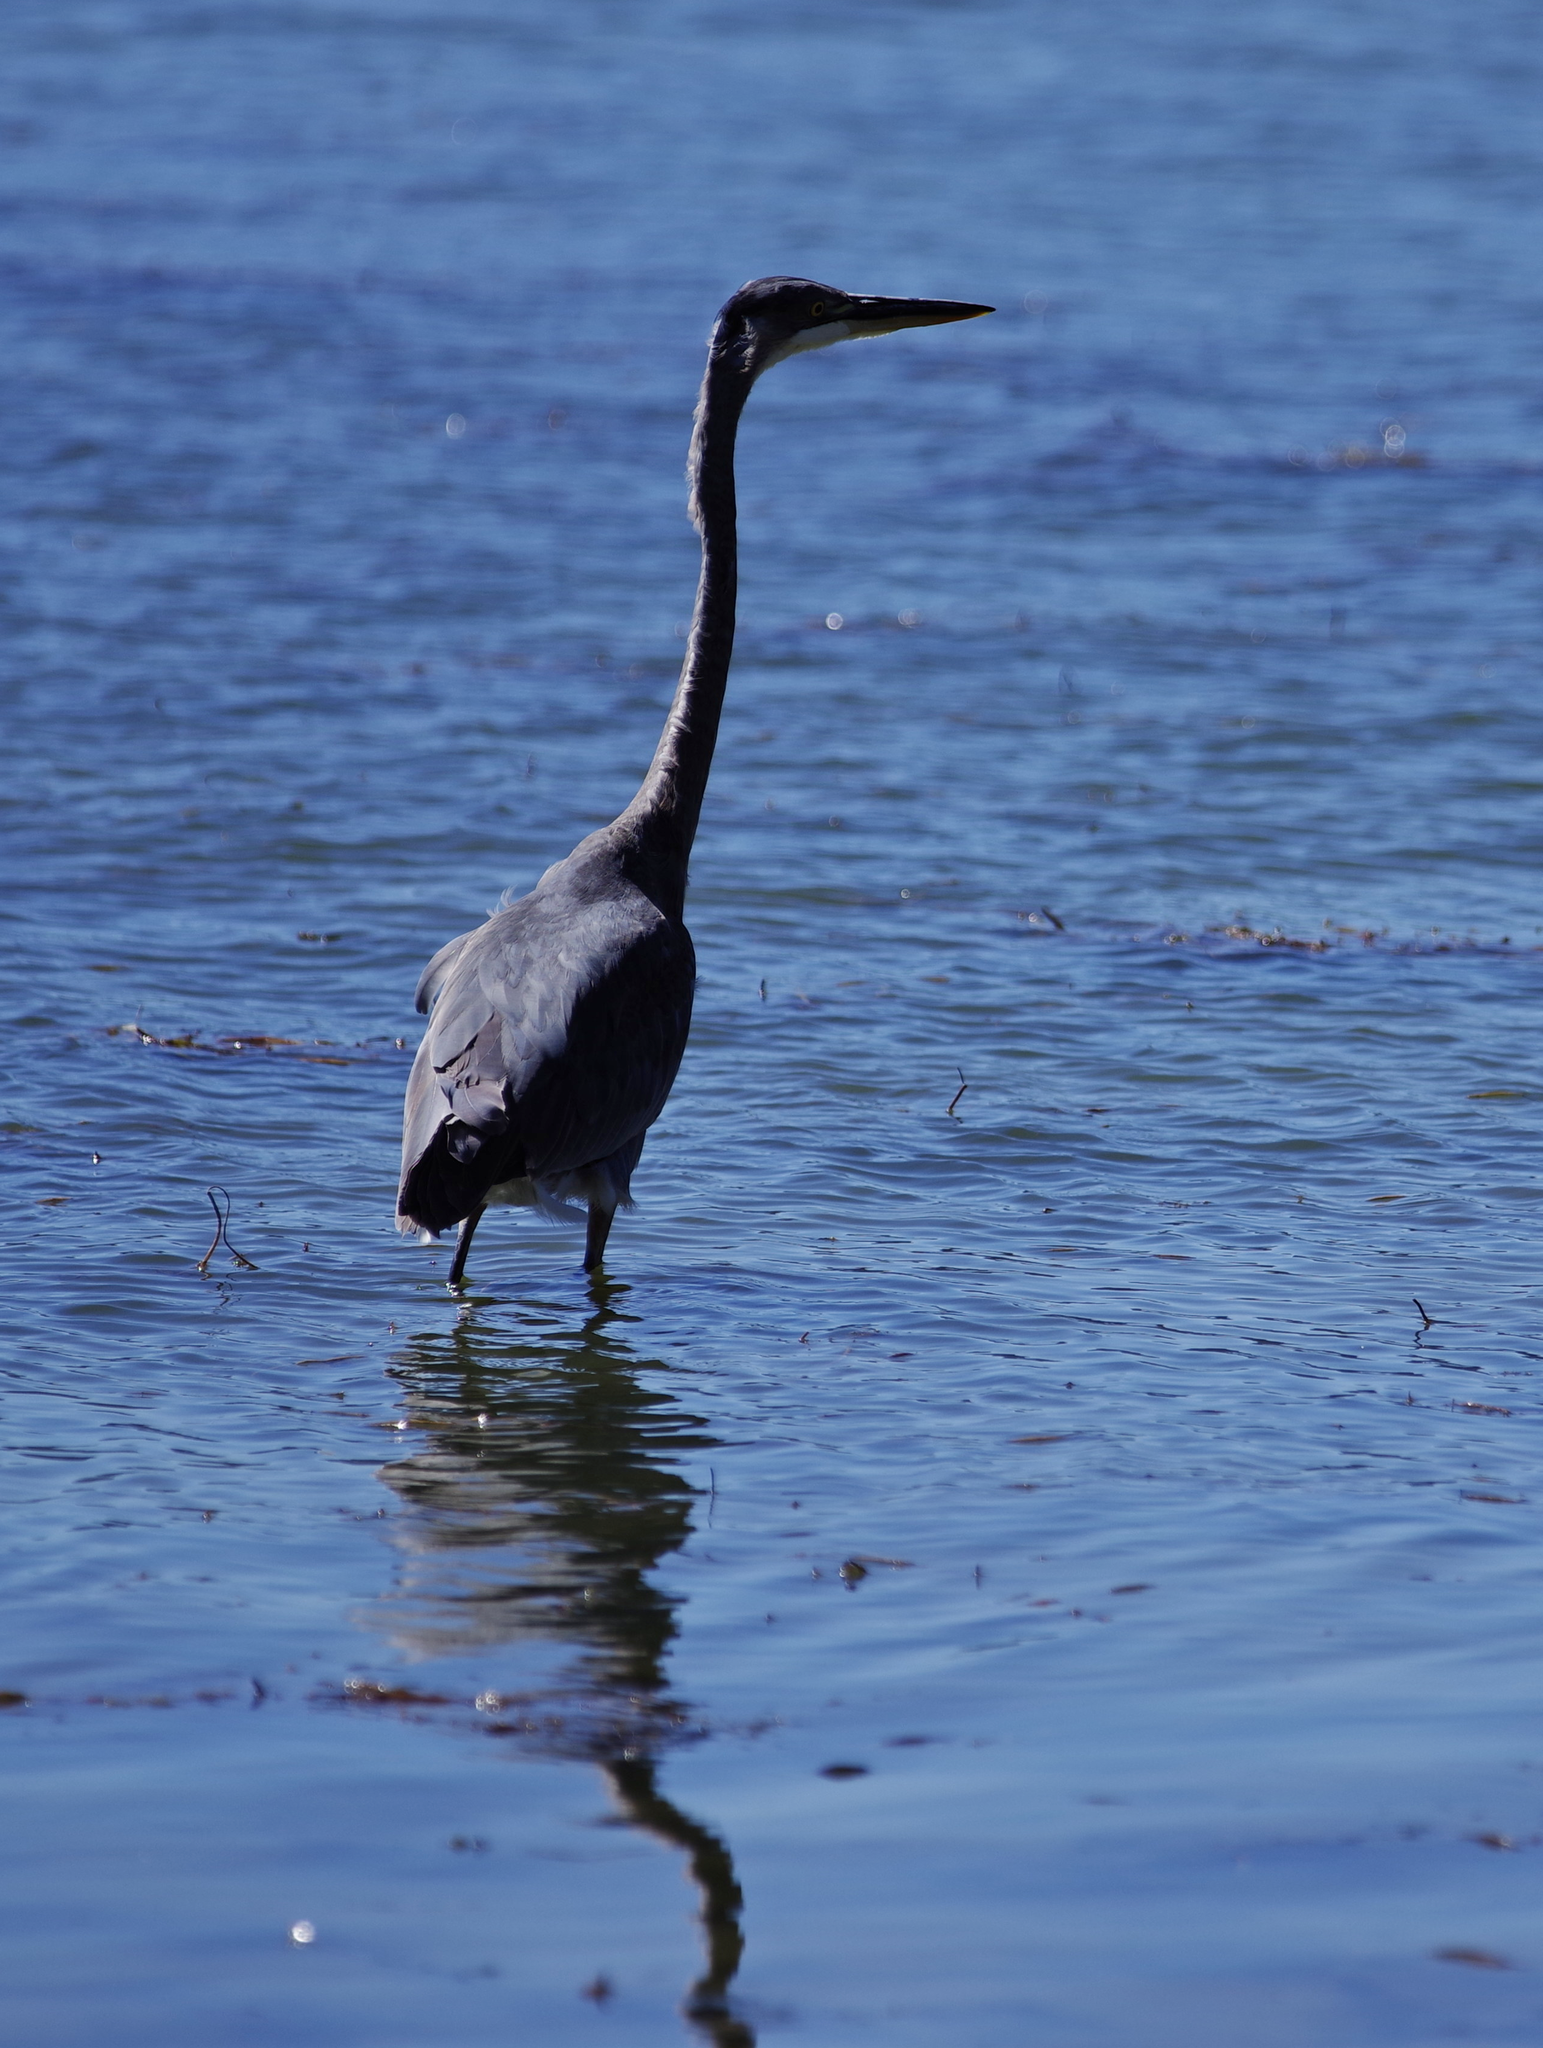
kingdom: Animalia
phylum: Chordata
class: Aves
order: Pelecaniformes
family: Ardeidae
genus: Ardea
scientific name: Ardea herodias
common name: Great blue heron
